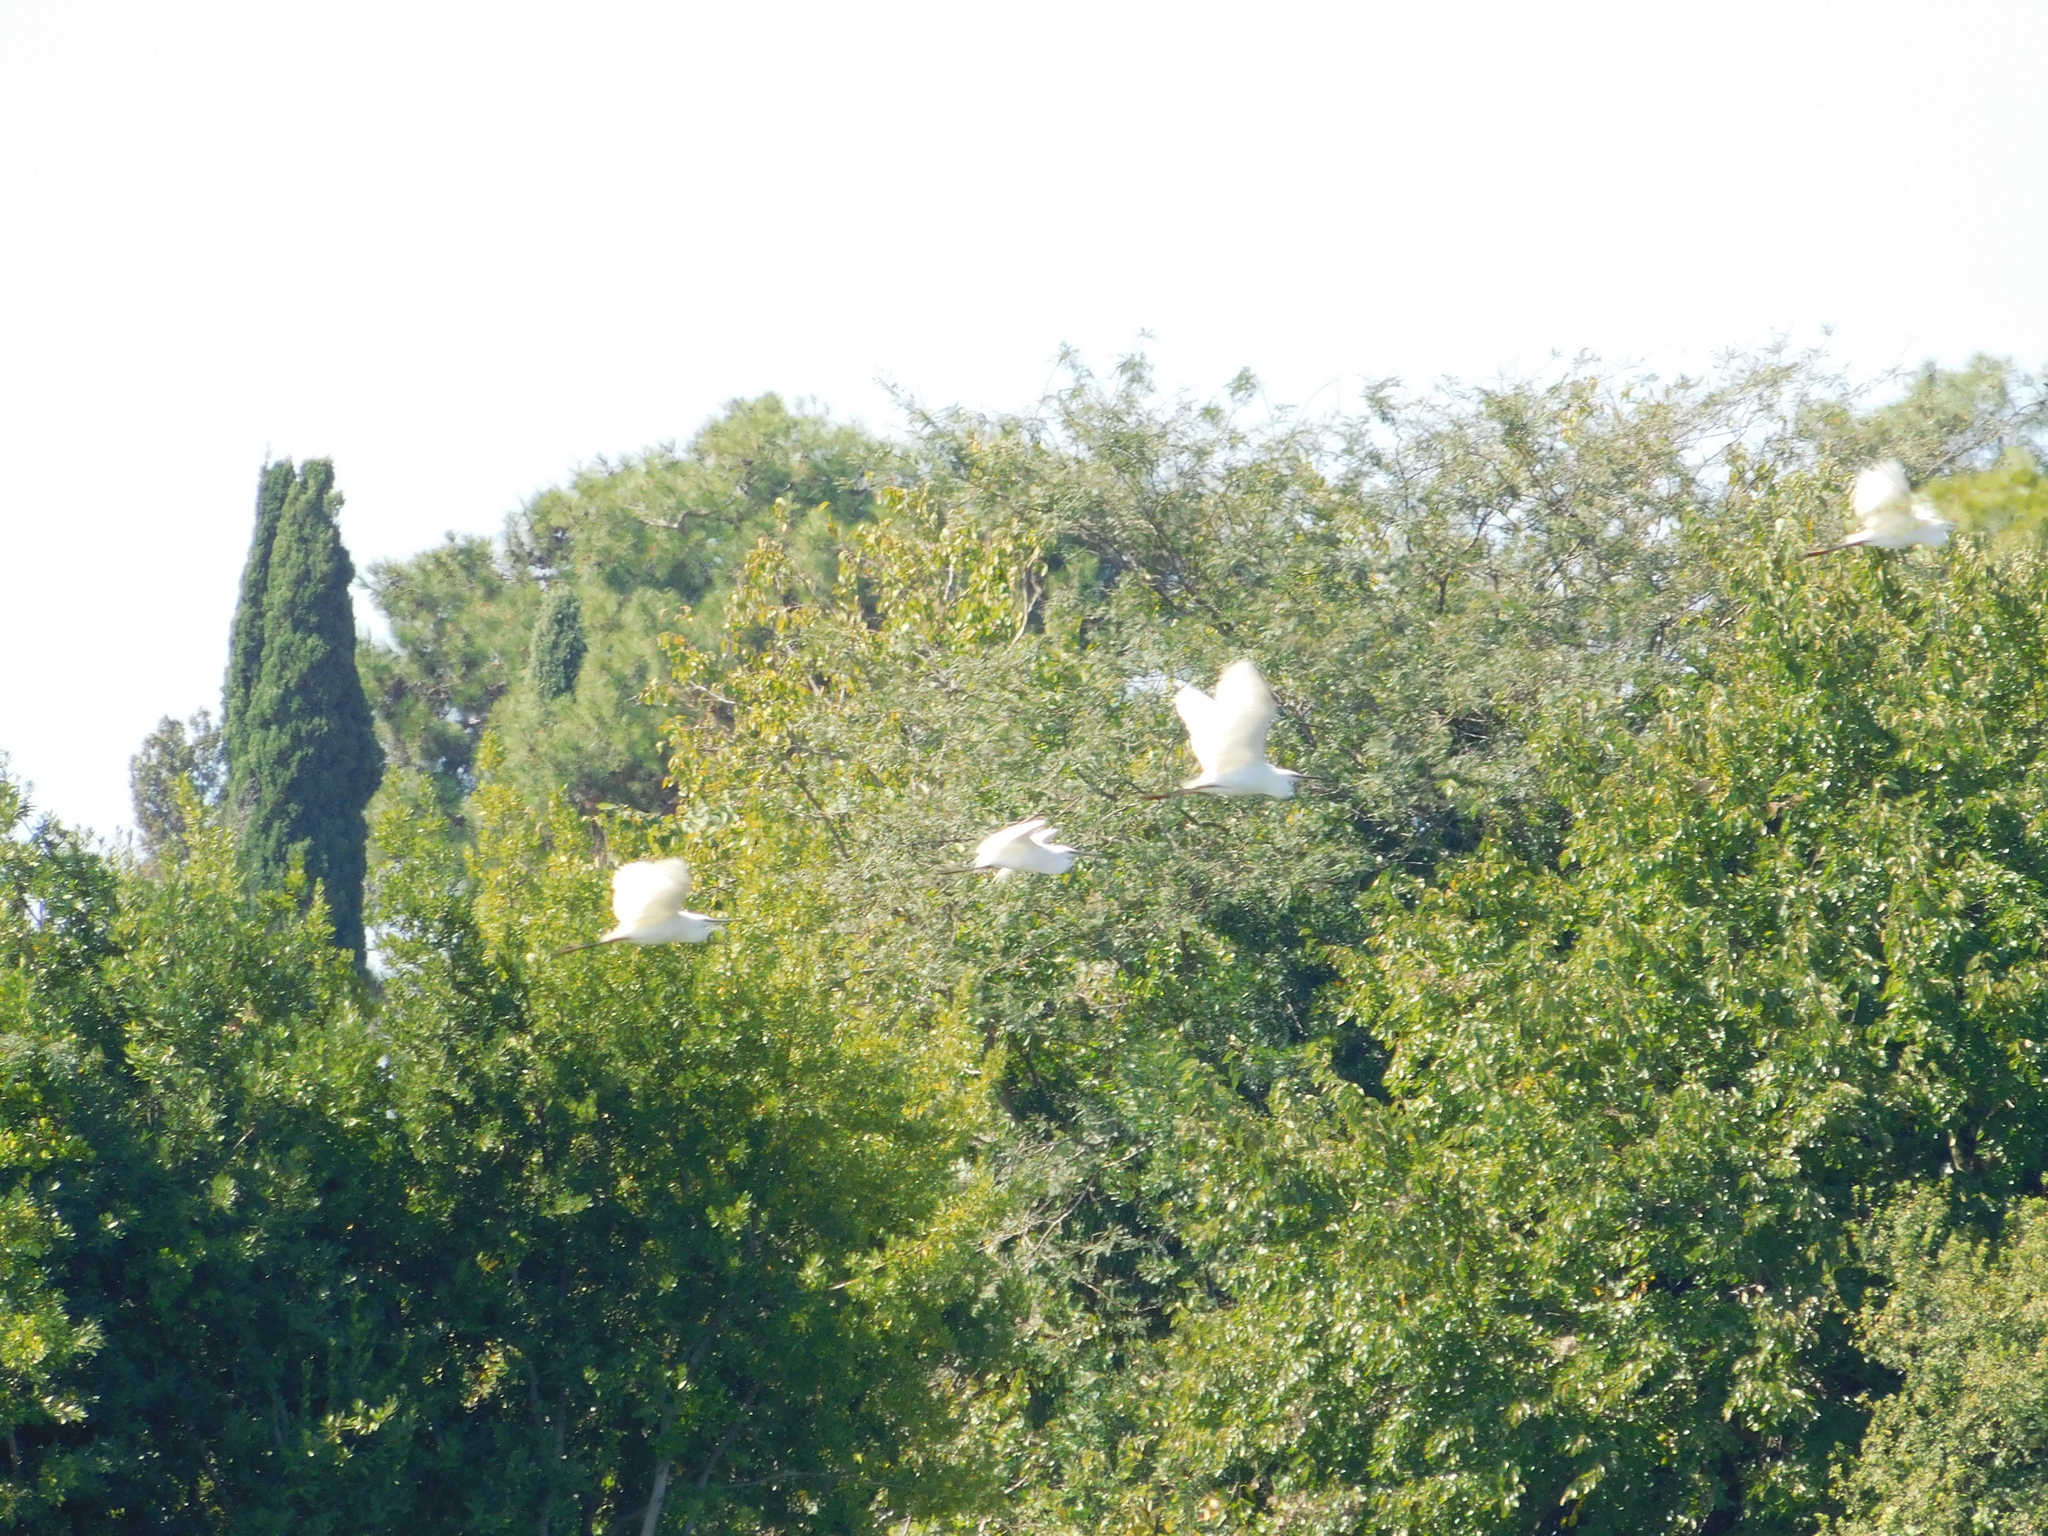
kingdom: Animalia
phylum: Chordata
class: Aves
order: Pelecaniformes
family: Ardeidae
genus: Egretta
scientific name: Egretta garzetta
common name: Little egret
